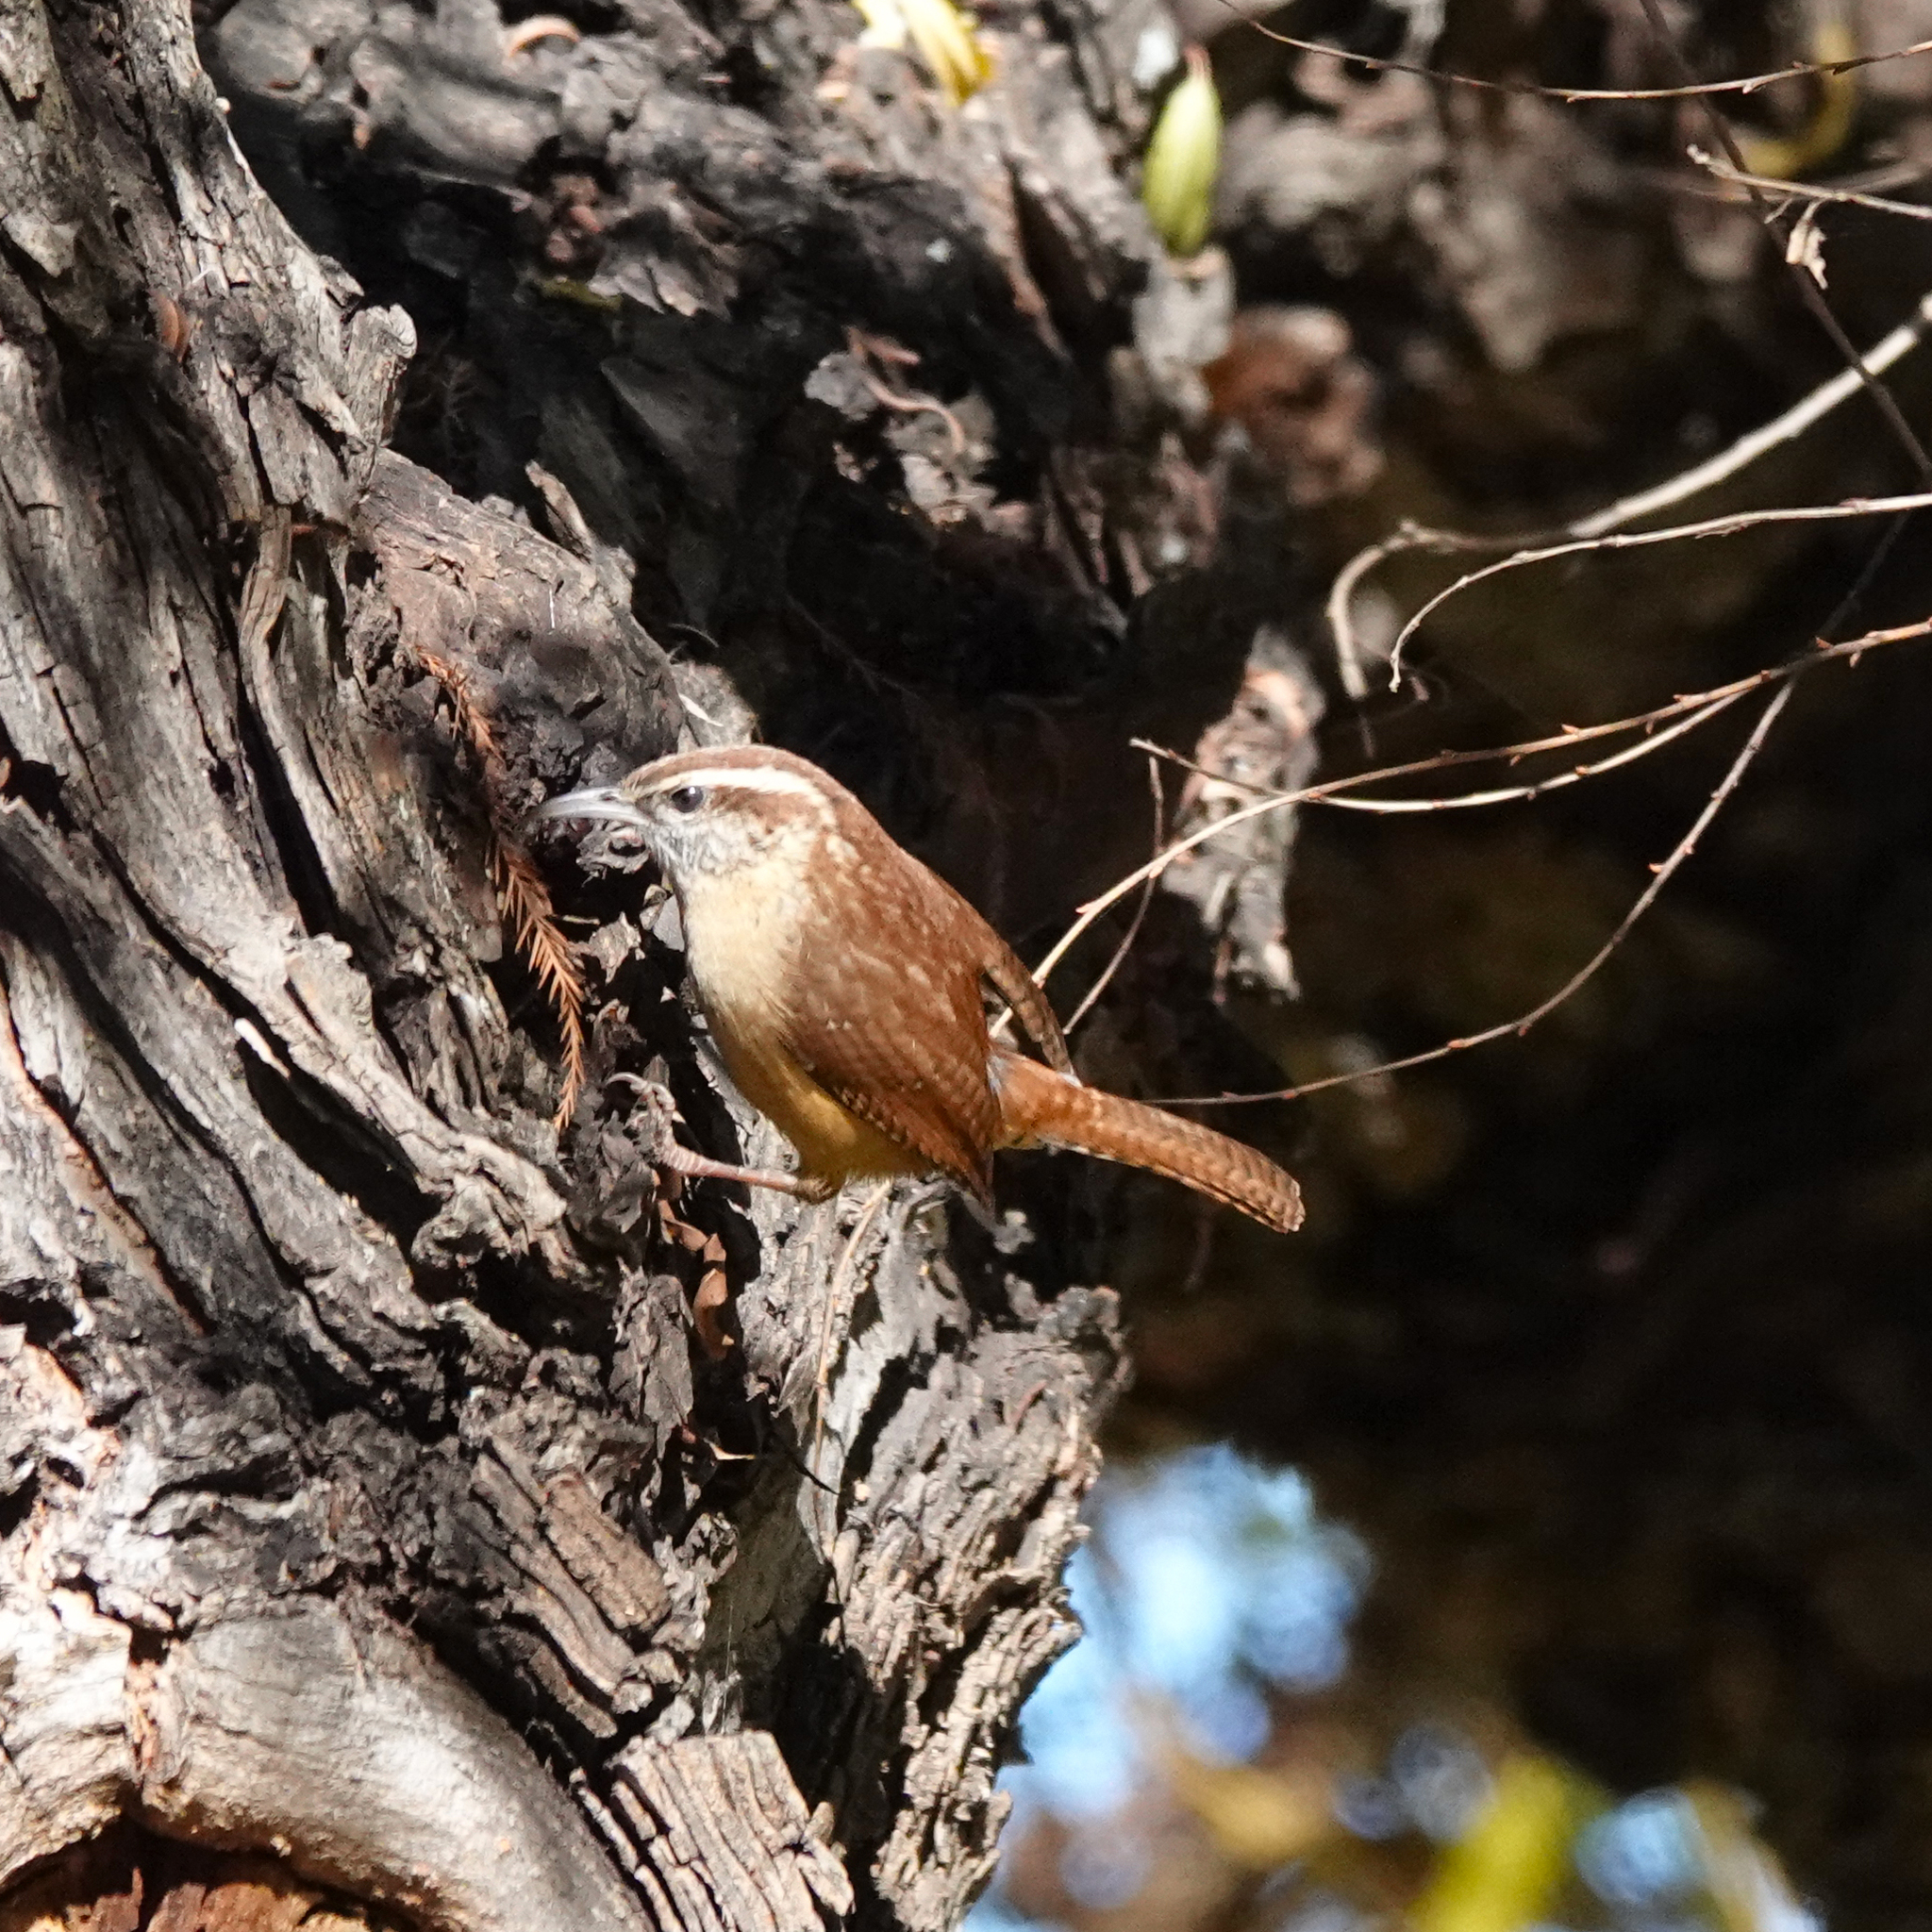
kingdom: Animalia
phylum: Chordata
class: Aves
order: Passeriformes
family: Troglodytidae
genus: Thryothorus
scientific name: Thryothorus ludovicianus
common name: Carolina wren
